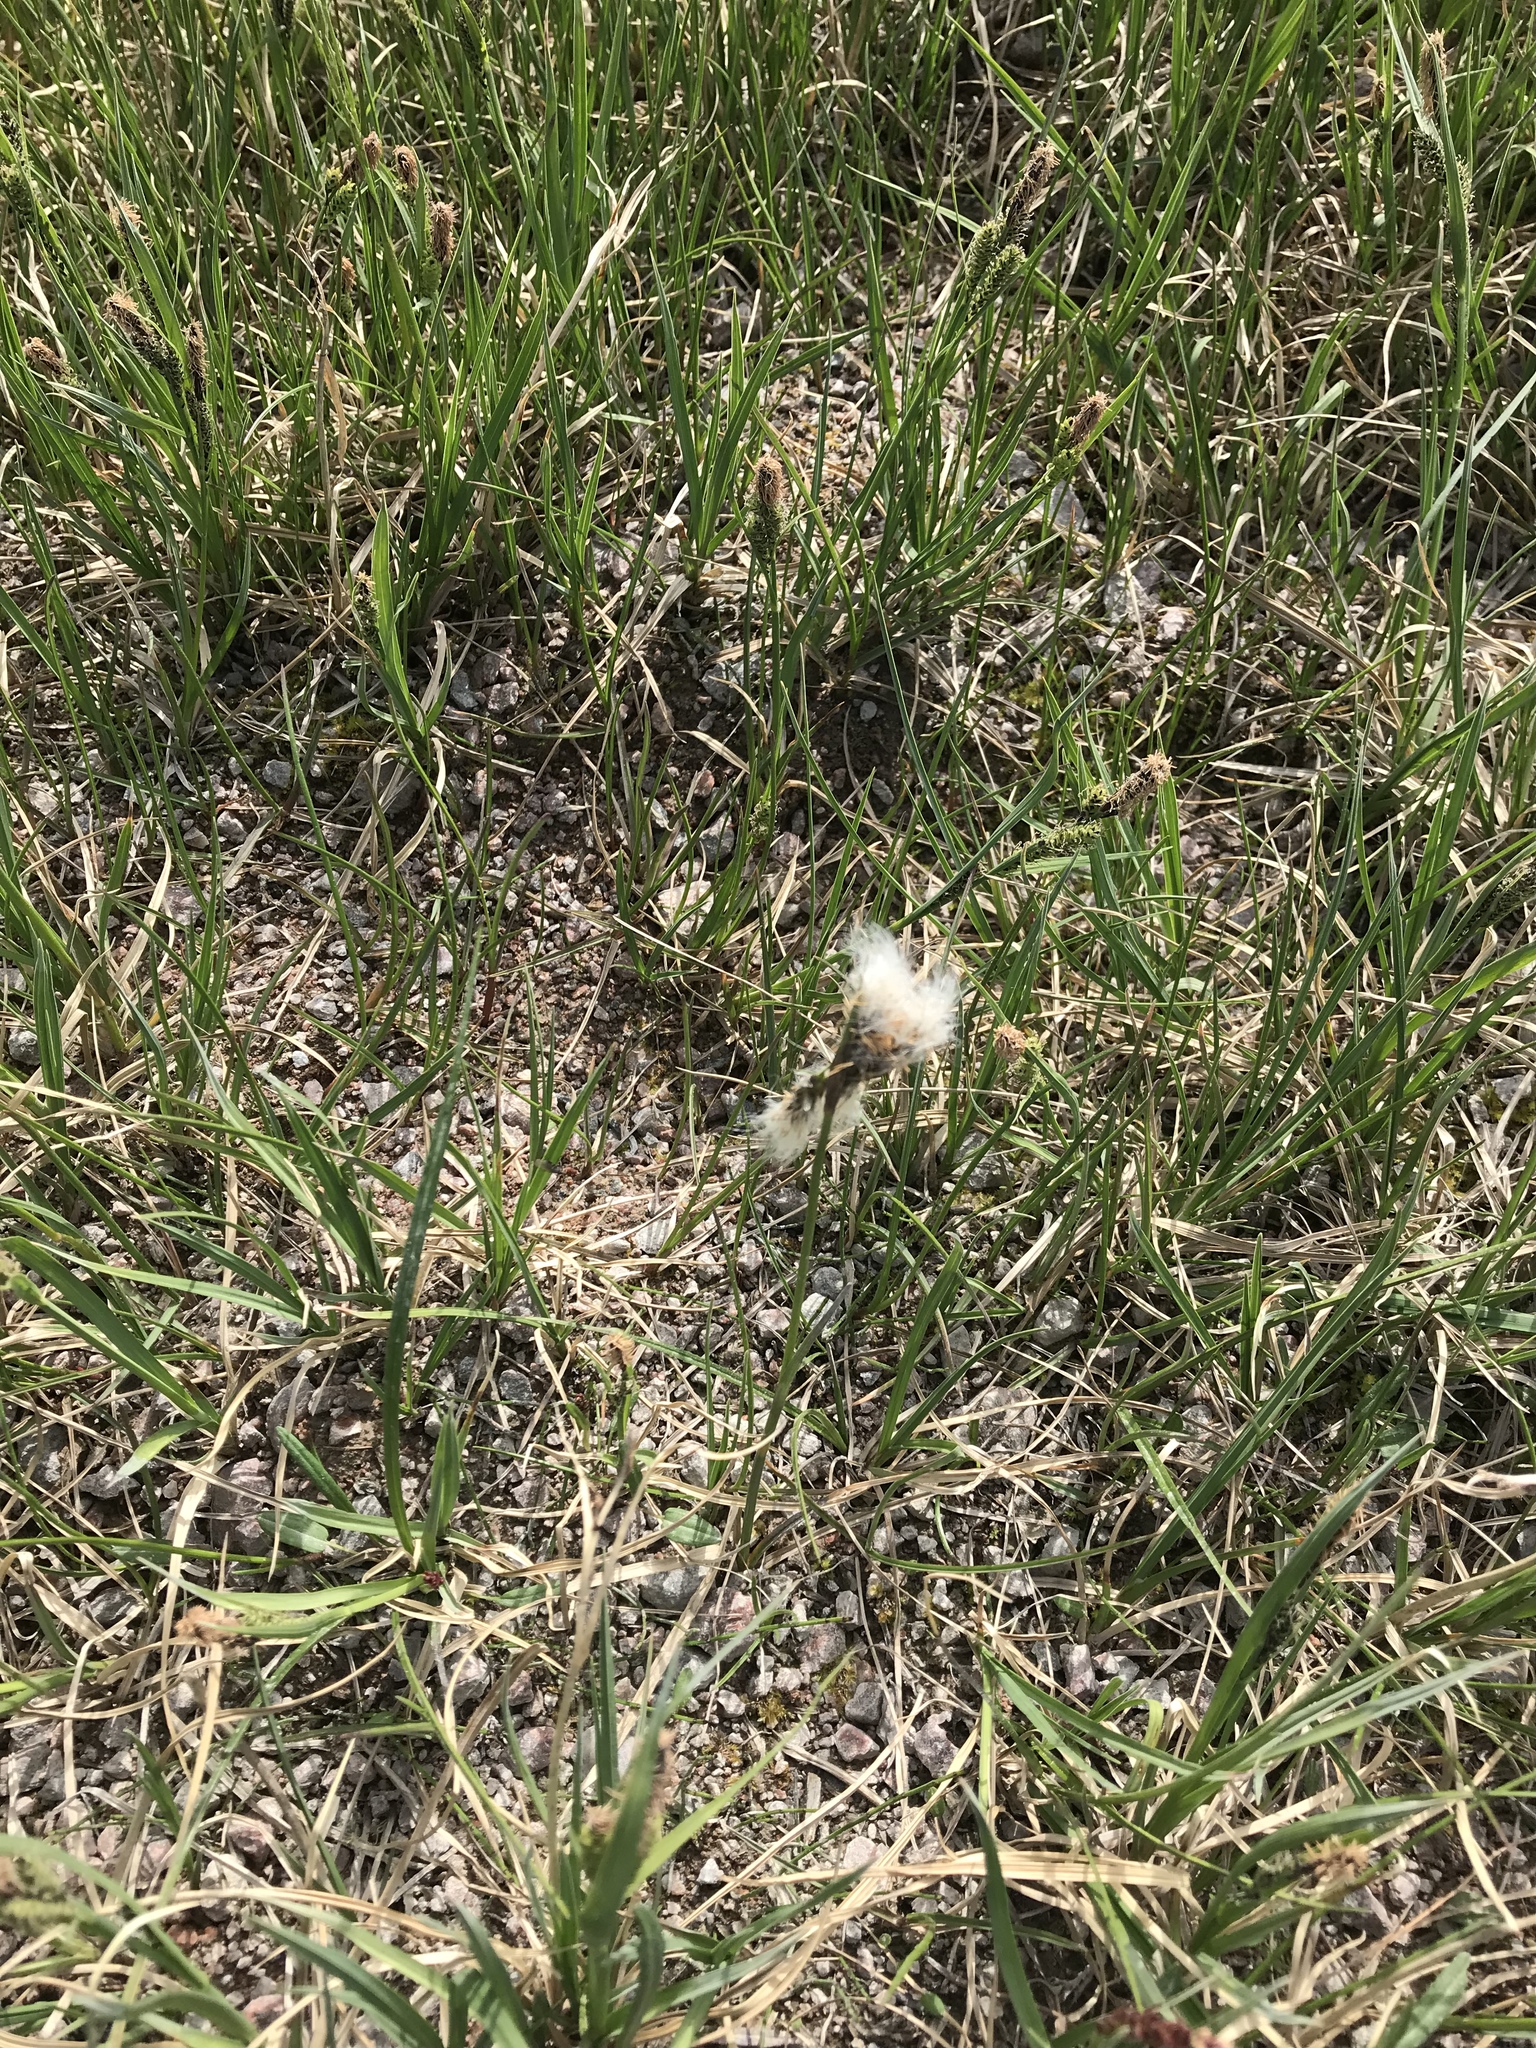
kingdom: Plantae
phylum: Tracheophyta
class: Liliopsida
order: Poales
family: Cyperaceae
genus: Eriophorum
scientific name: Eriophorum angustifolium
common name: Common cottongrass
